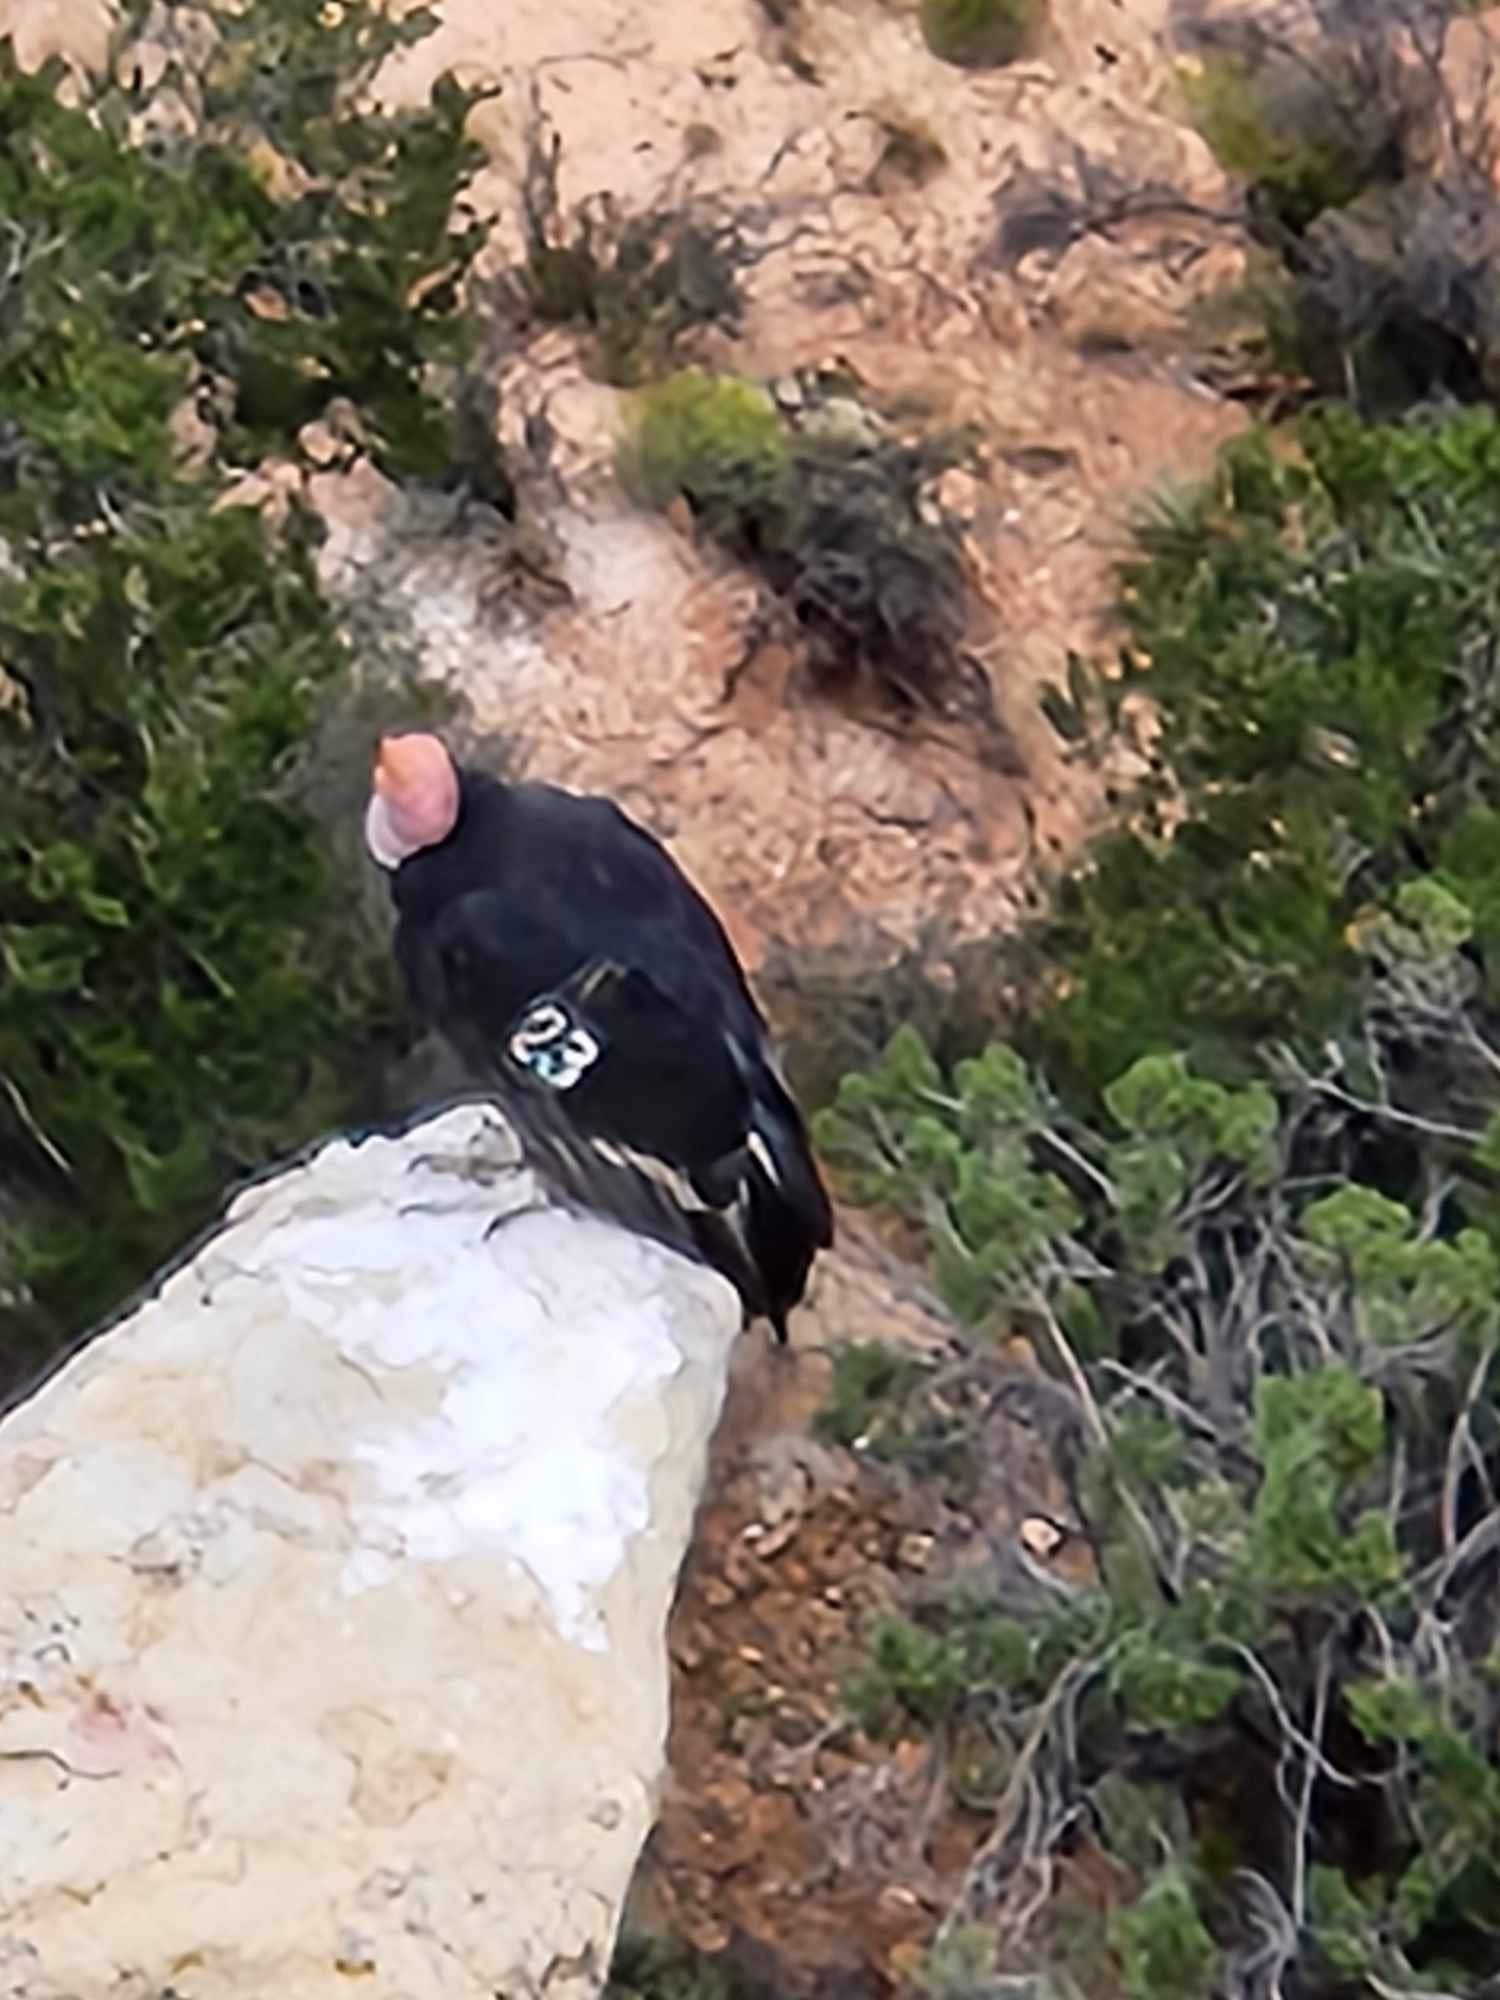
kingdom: Animalia
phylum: Chordata
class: Aves
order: Accipitriformes
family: Cathartidae
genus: Gymnogyps
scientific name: Gymnogyps californianus
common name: California condor
